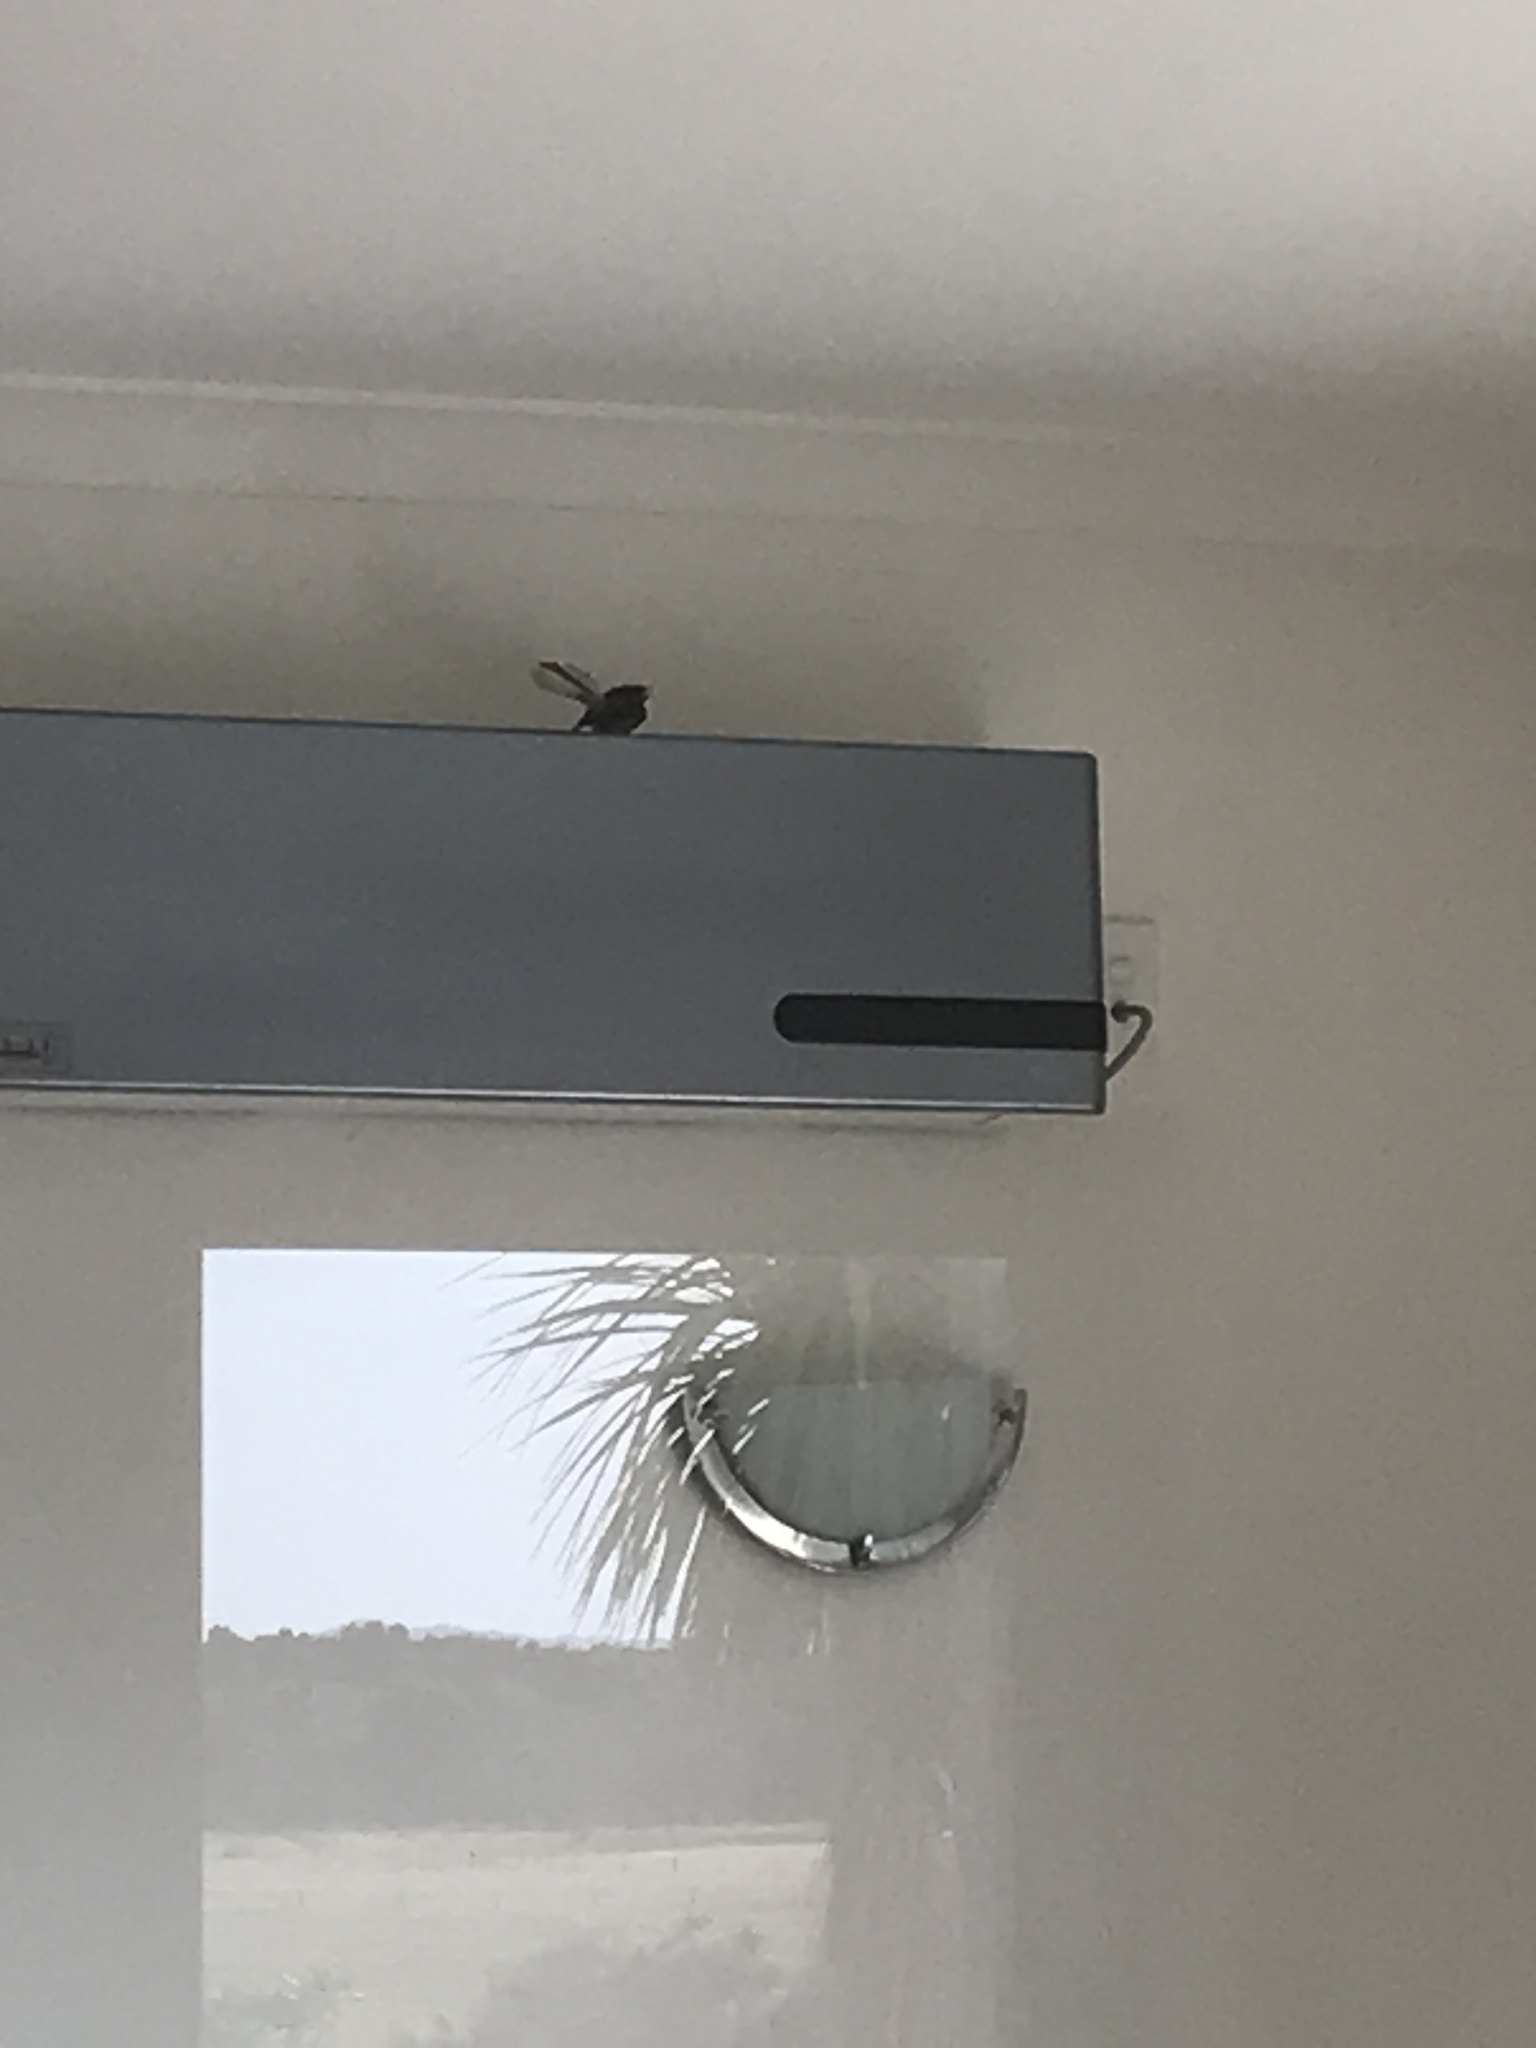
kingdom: Animalia
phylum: Chordata
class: Aves
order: Passeriformes
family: Rhipiduridae
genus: Rhipidura
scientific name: Rhipidura fuliginosa
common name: New zealand fantail
